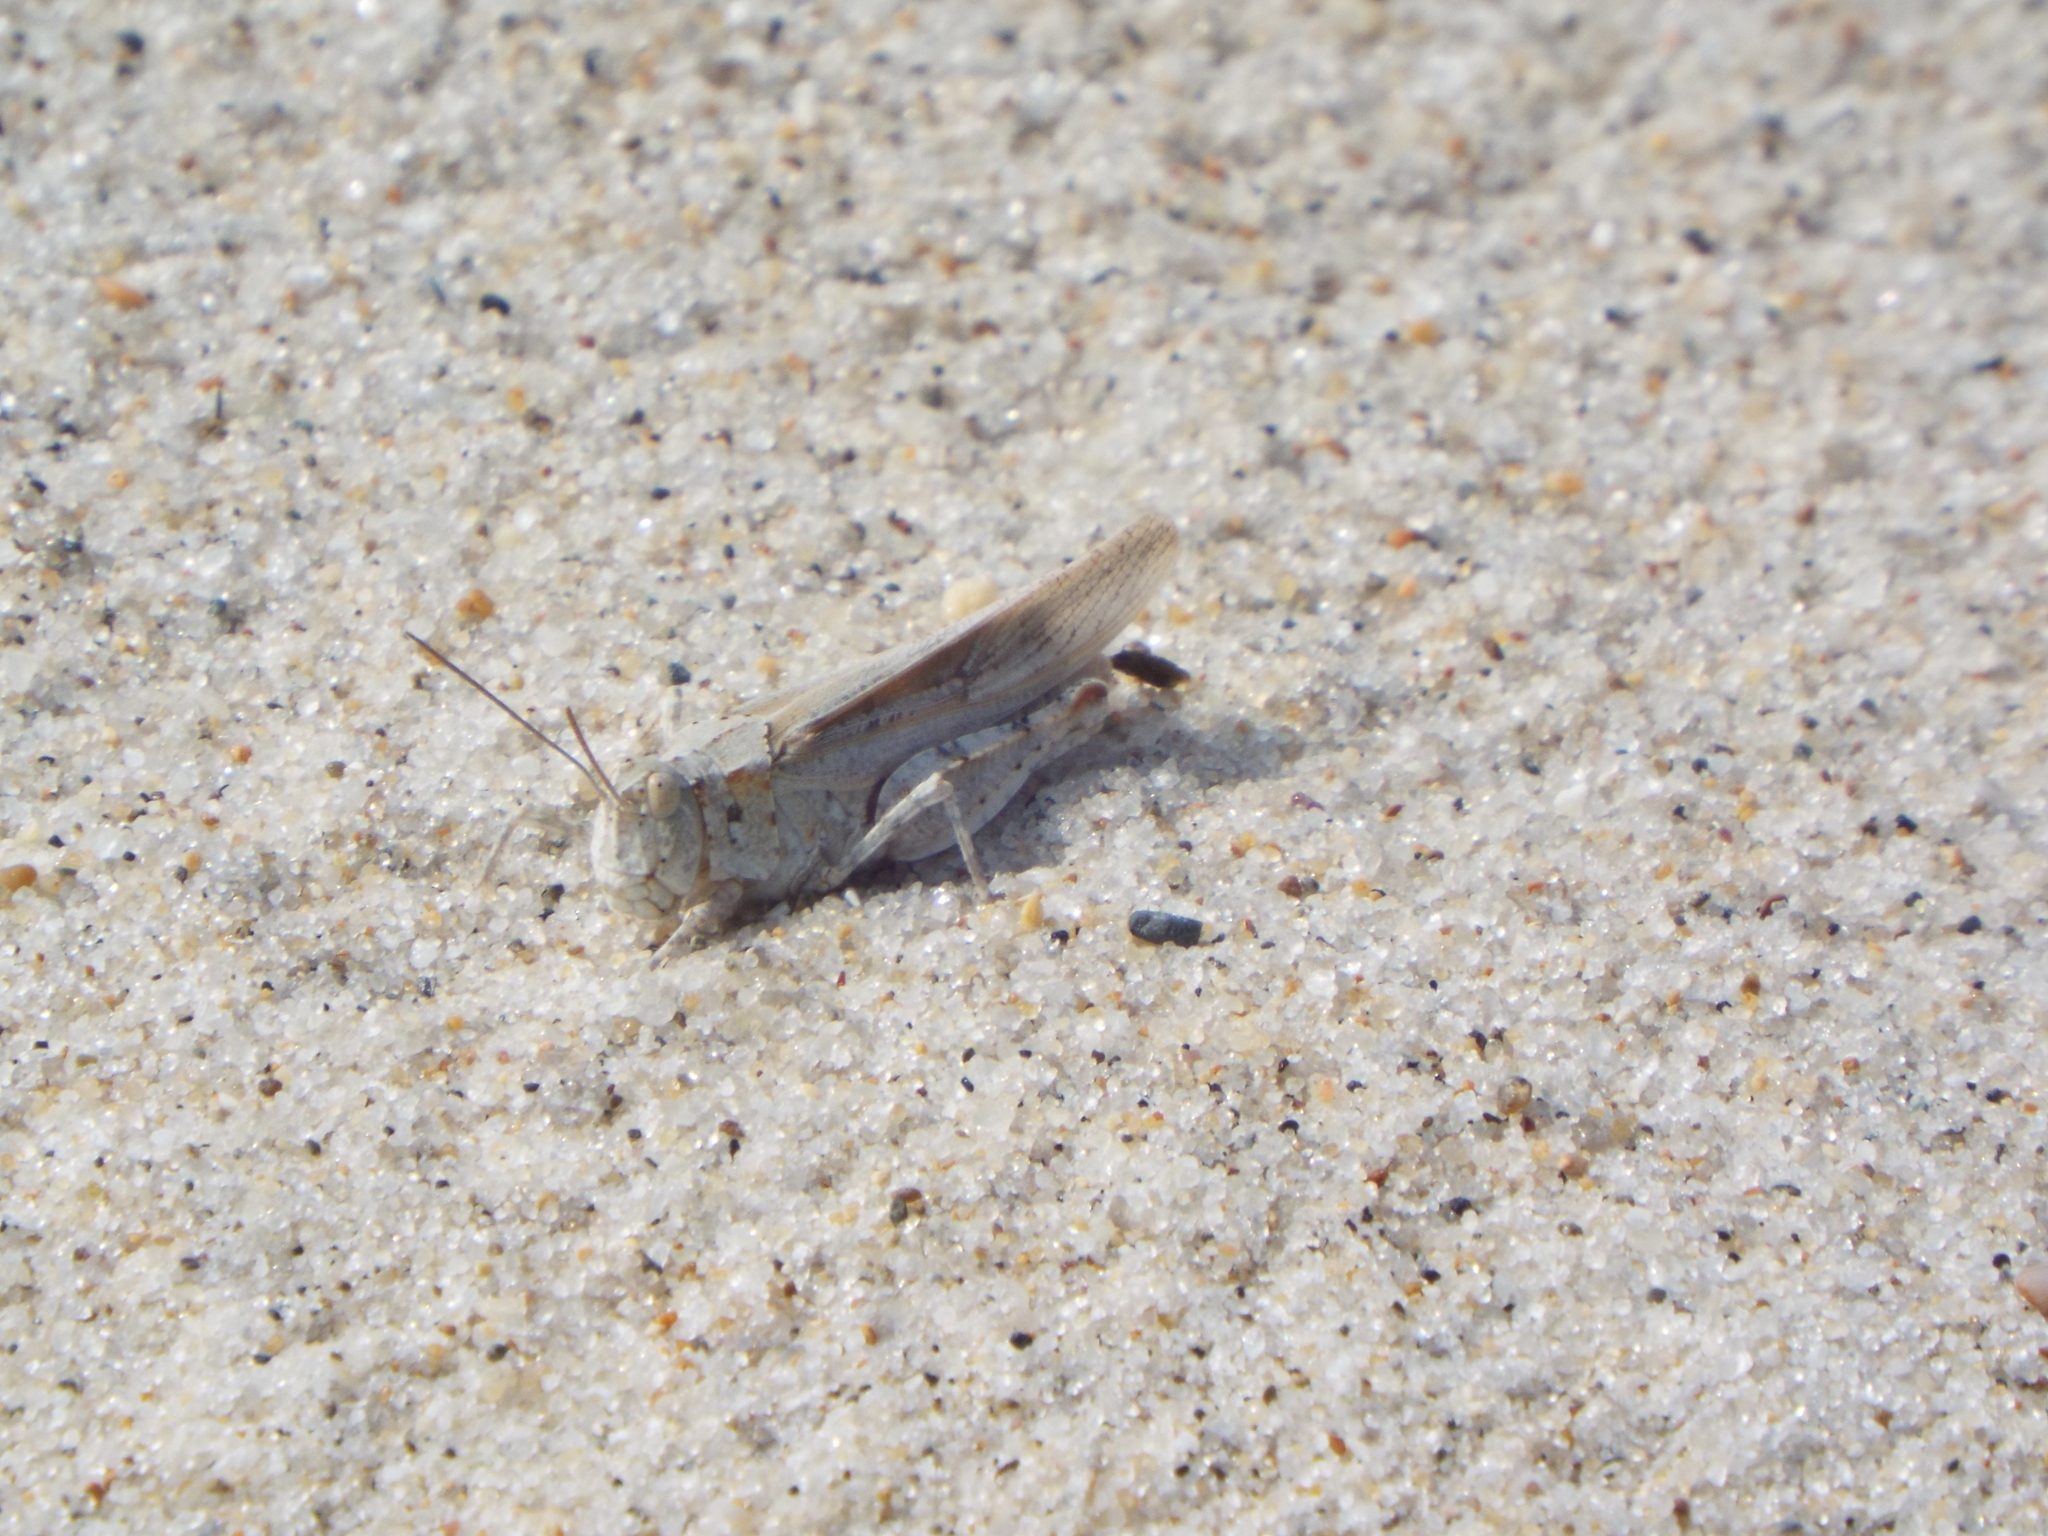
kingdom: Animalia
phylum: Arthropoda
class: Insecta
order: Orthoptera
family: Acrididae
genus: Trimerotropis
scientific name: Trimerotropis maritima
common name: Seaside locust
